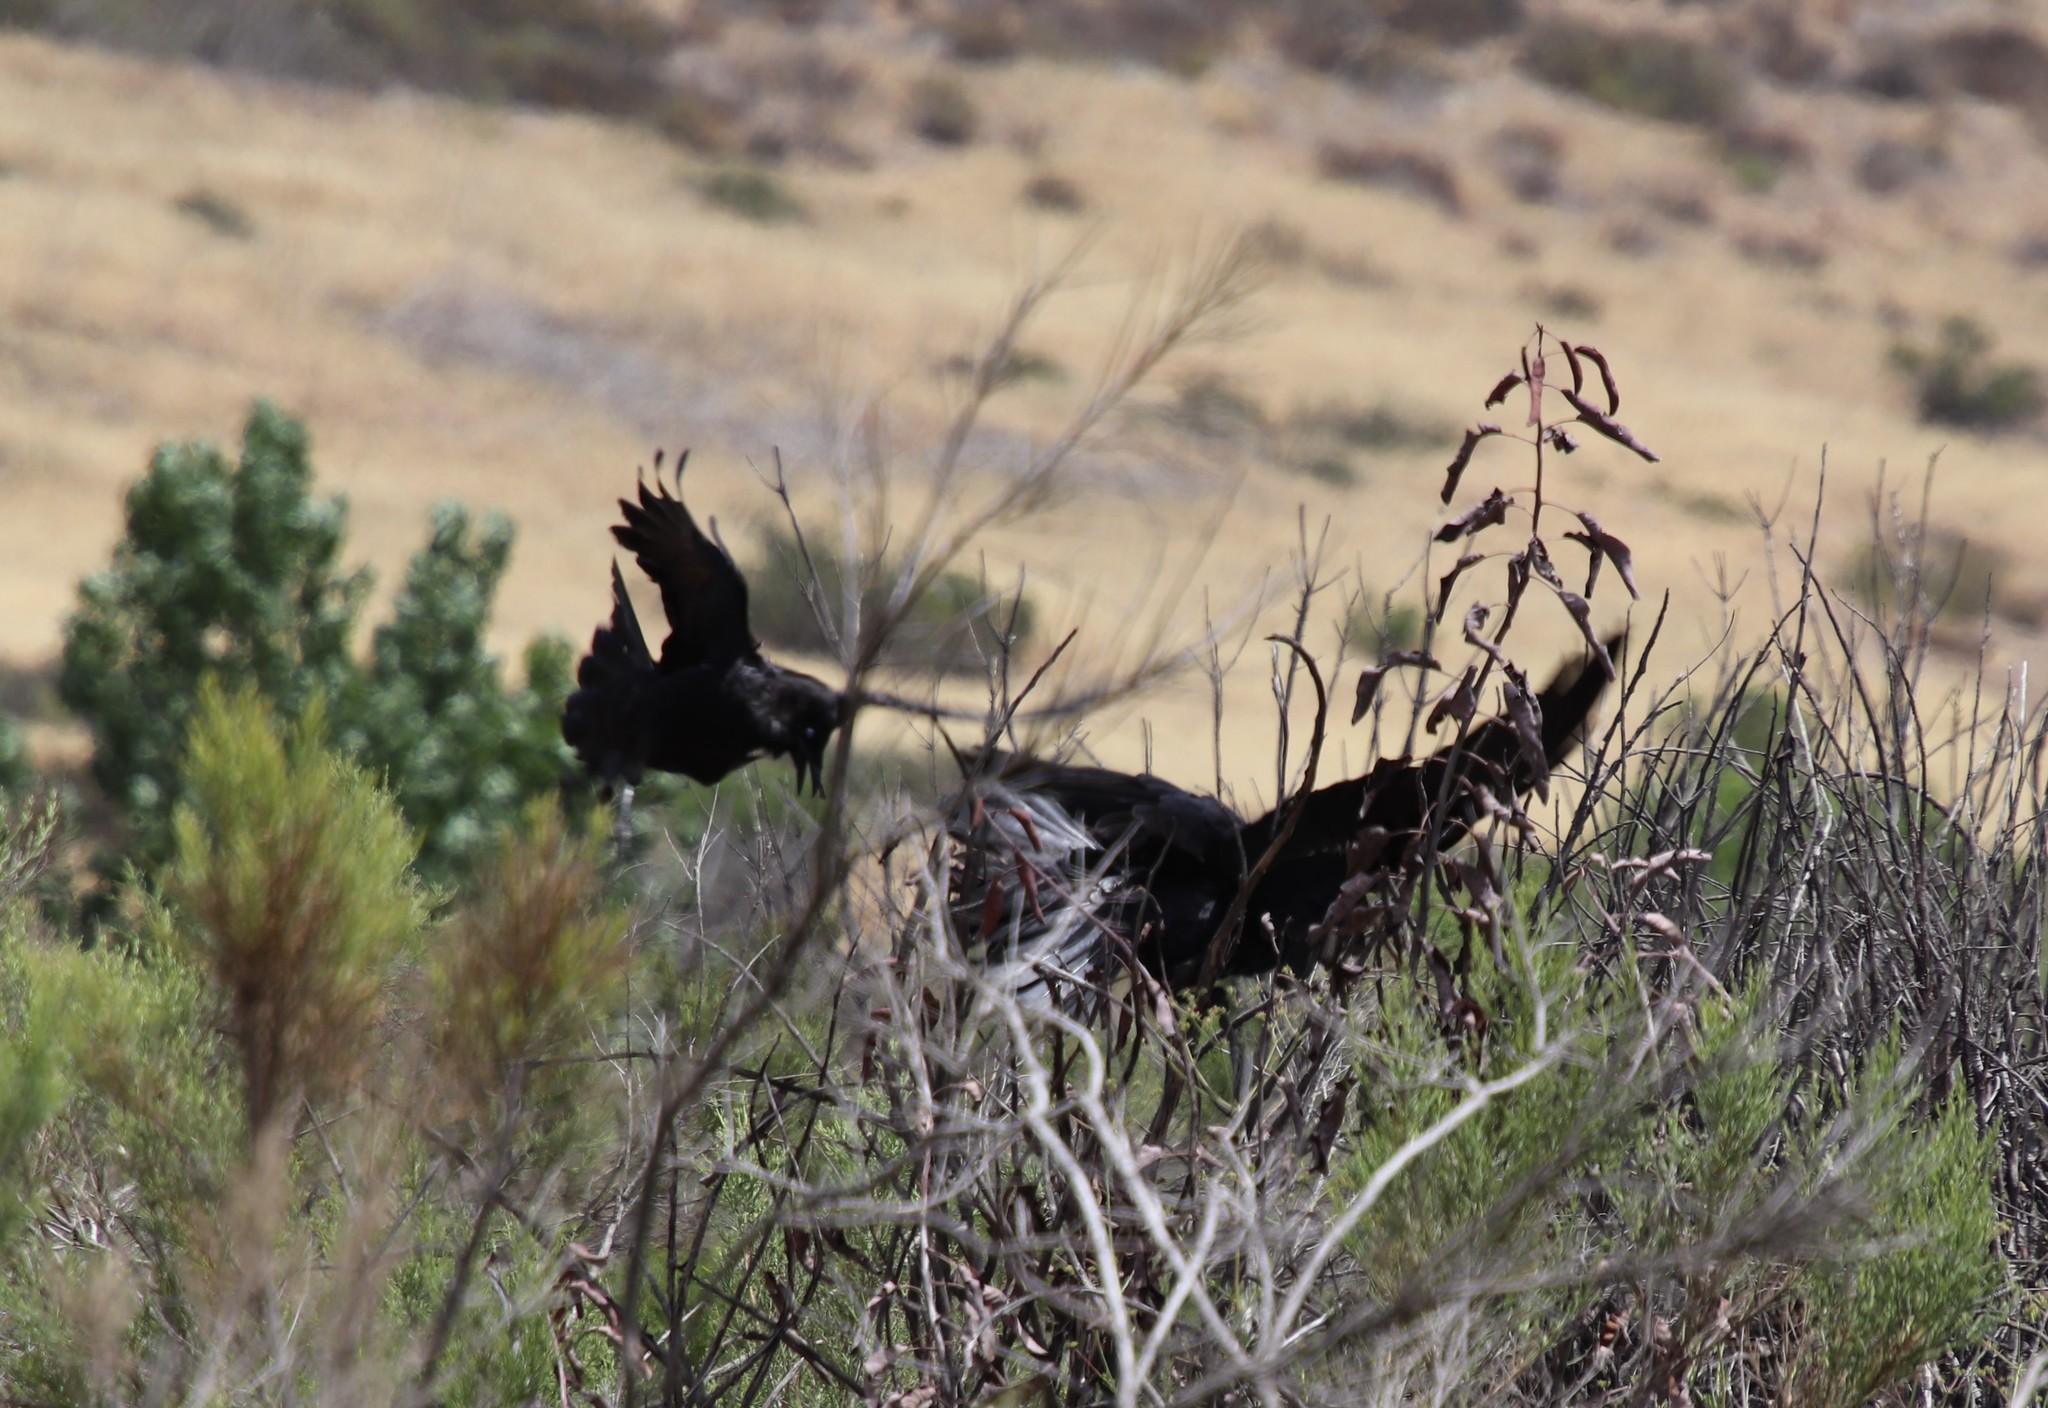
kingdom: Animalia
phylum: Chordata
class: Aves
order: Passeriformes
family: Corvidae
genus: Corvus
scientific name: Corvus brachyrhynchos
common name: American crow
